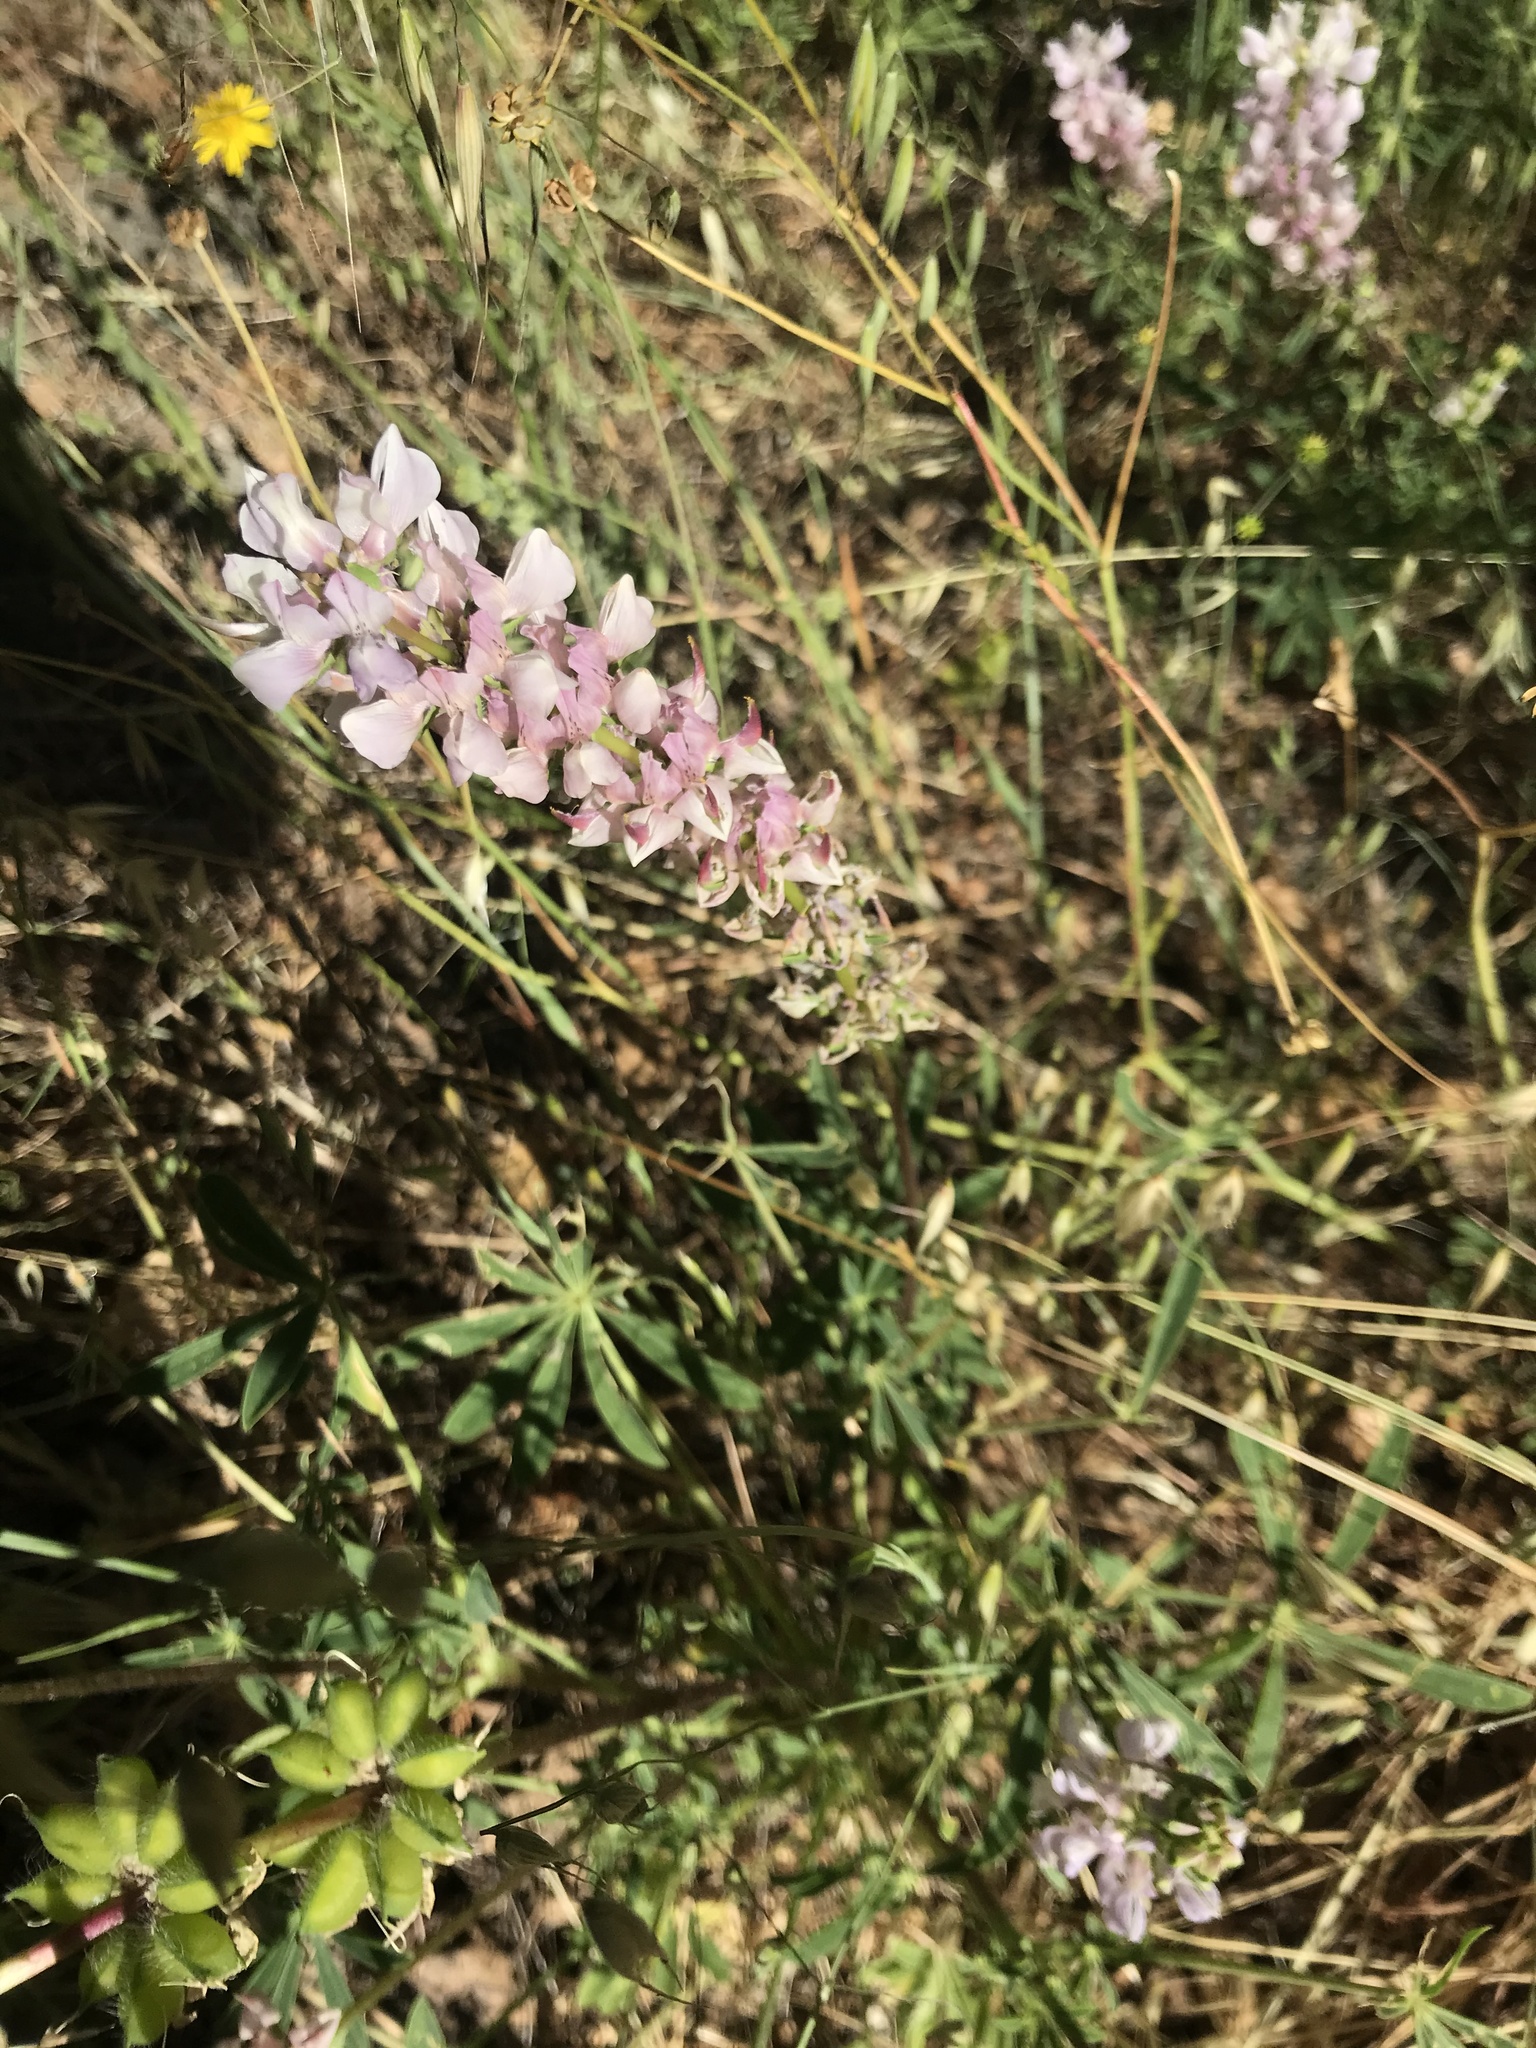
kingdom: Plantae
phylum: Tracheophyta
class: Magnoliopsida
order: Fabales
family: Fabaceae
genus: Lupinus
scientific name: Lupinus microcarpus
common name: Chick lupine
